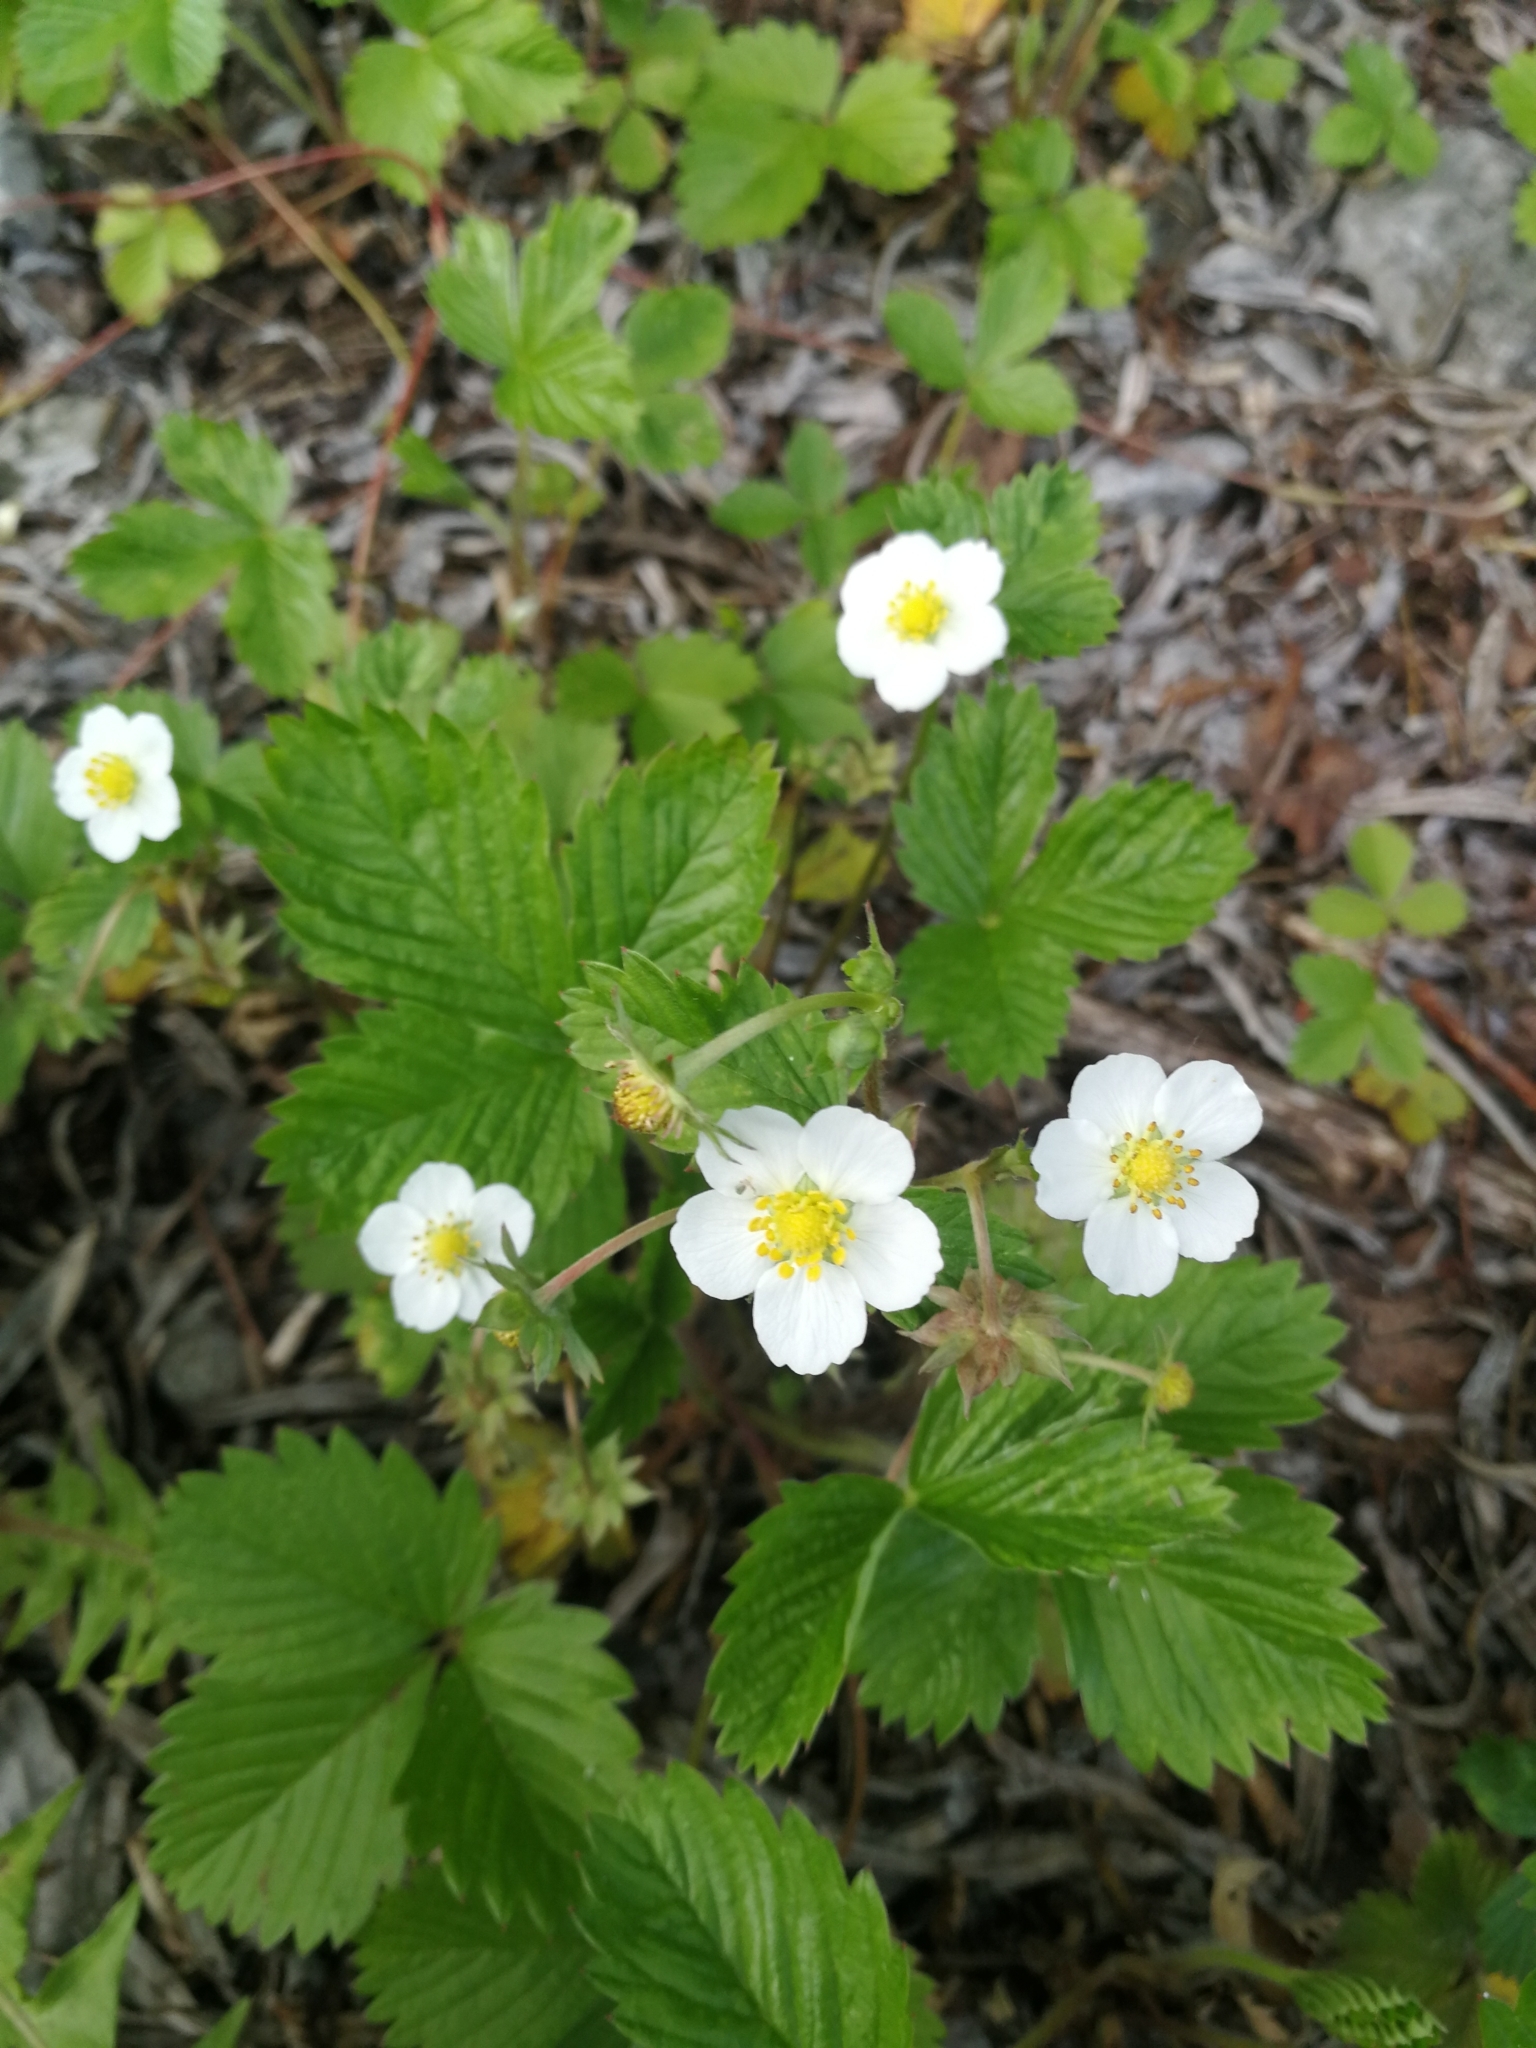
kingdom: Plantae
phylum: Tracheophyta
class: Magnoliopsida
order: Rosales
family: Rosaceae
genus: Fragaria
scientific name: Fragaria vesca
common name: Wild strawberry
